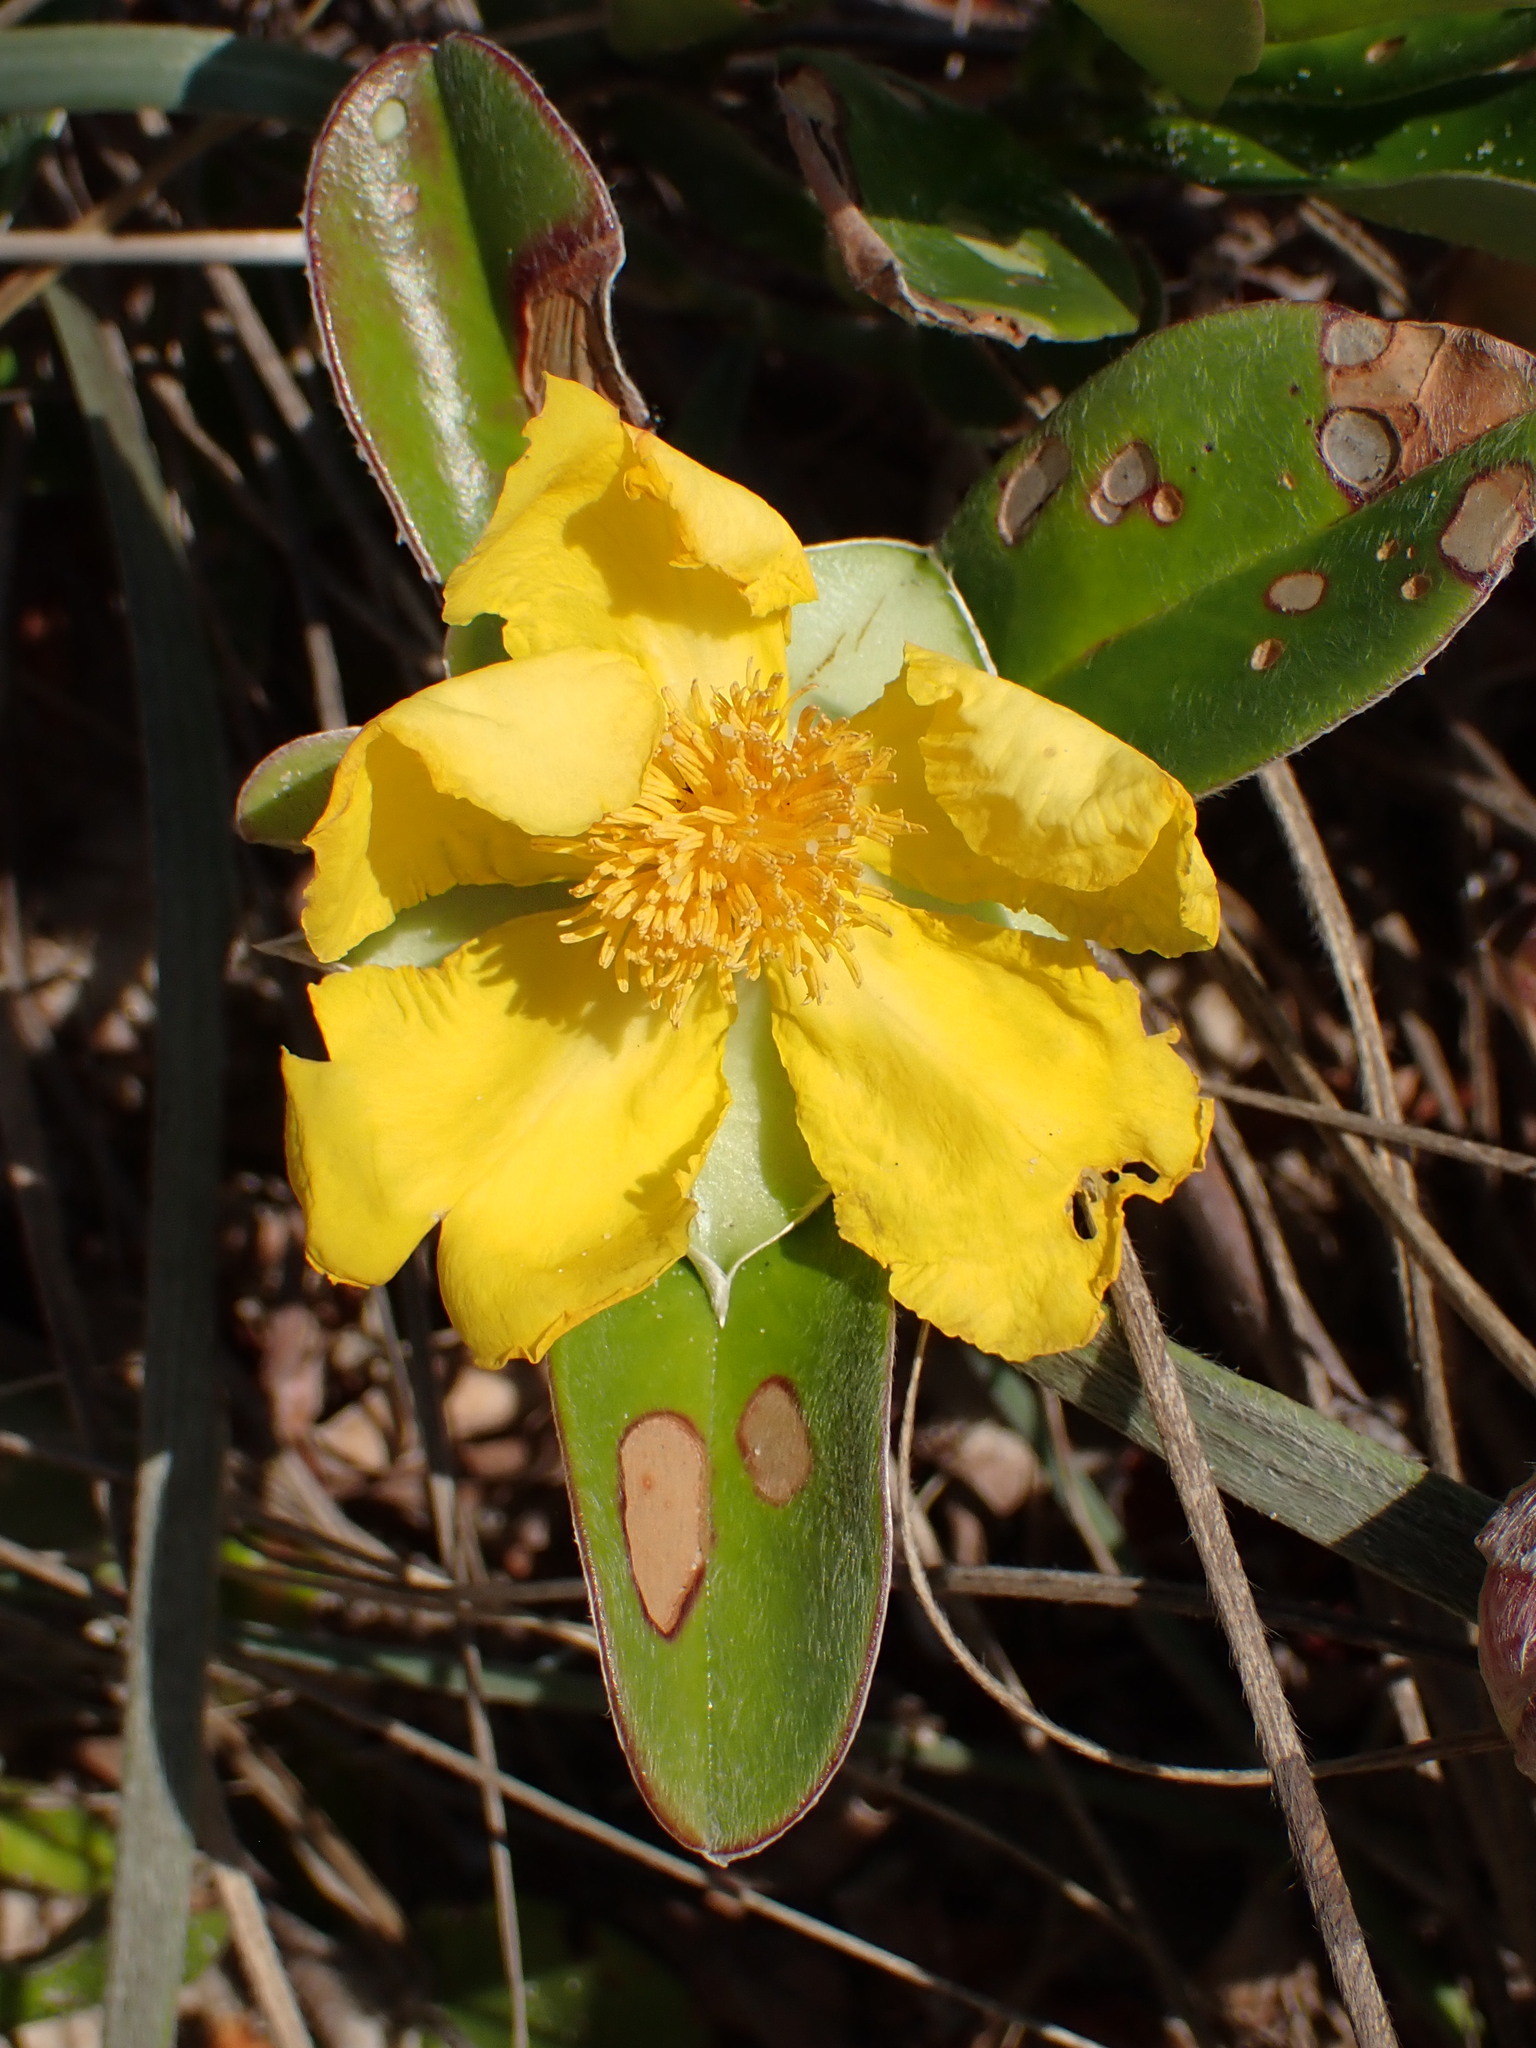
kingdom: Plantae
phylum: Tracheophyta
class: Magnoliopsida
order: Dilleniales
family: Dilleniaceae
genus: Hibbertia
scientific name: Hibbertia scandens
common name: Climbing guinea-flower
